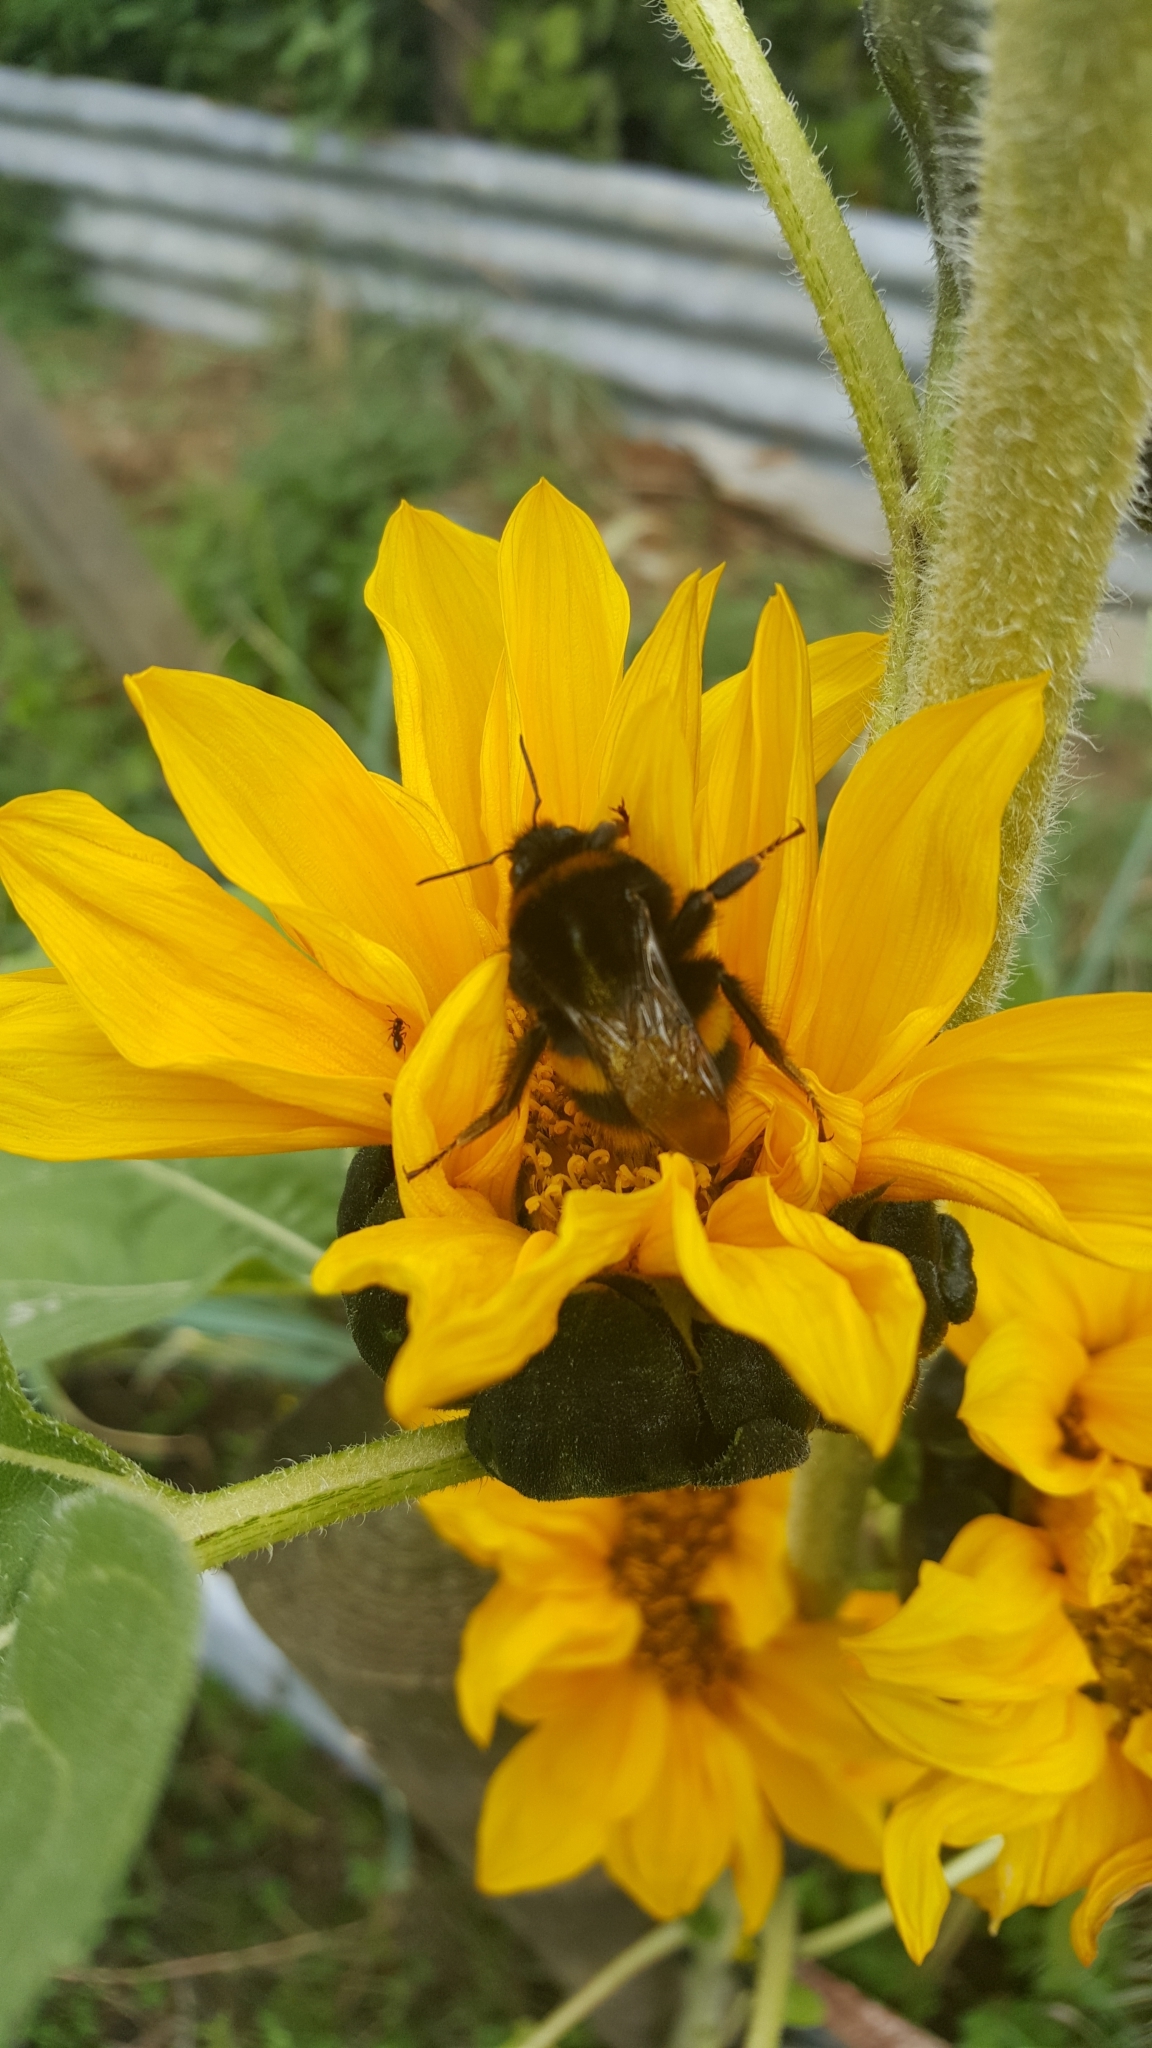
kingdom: Animalia
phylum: Arthropoda
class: Insecta
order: Hymenoptera
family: Apidae
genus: Bombus
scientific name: Bombus terrestris
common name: Buff-tailed bumblebee
